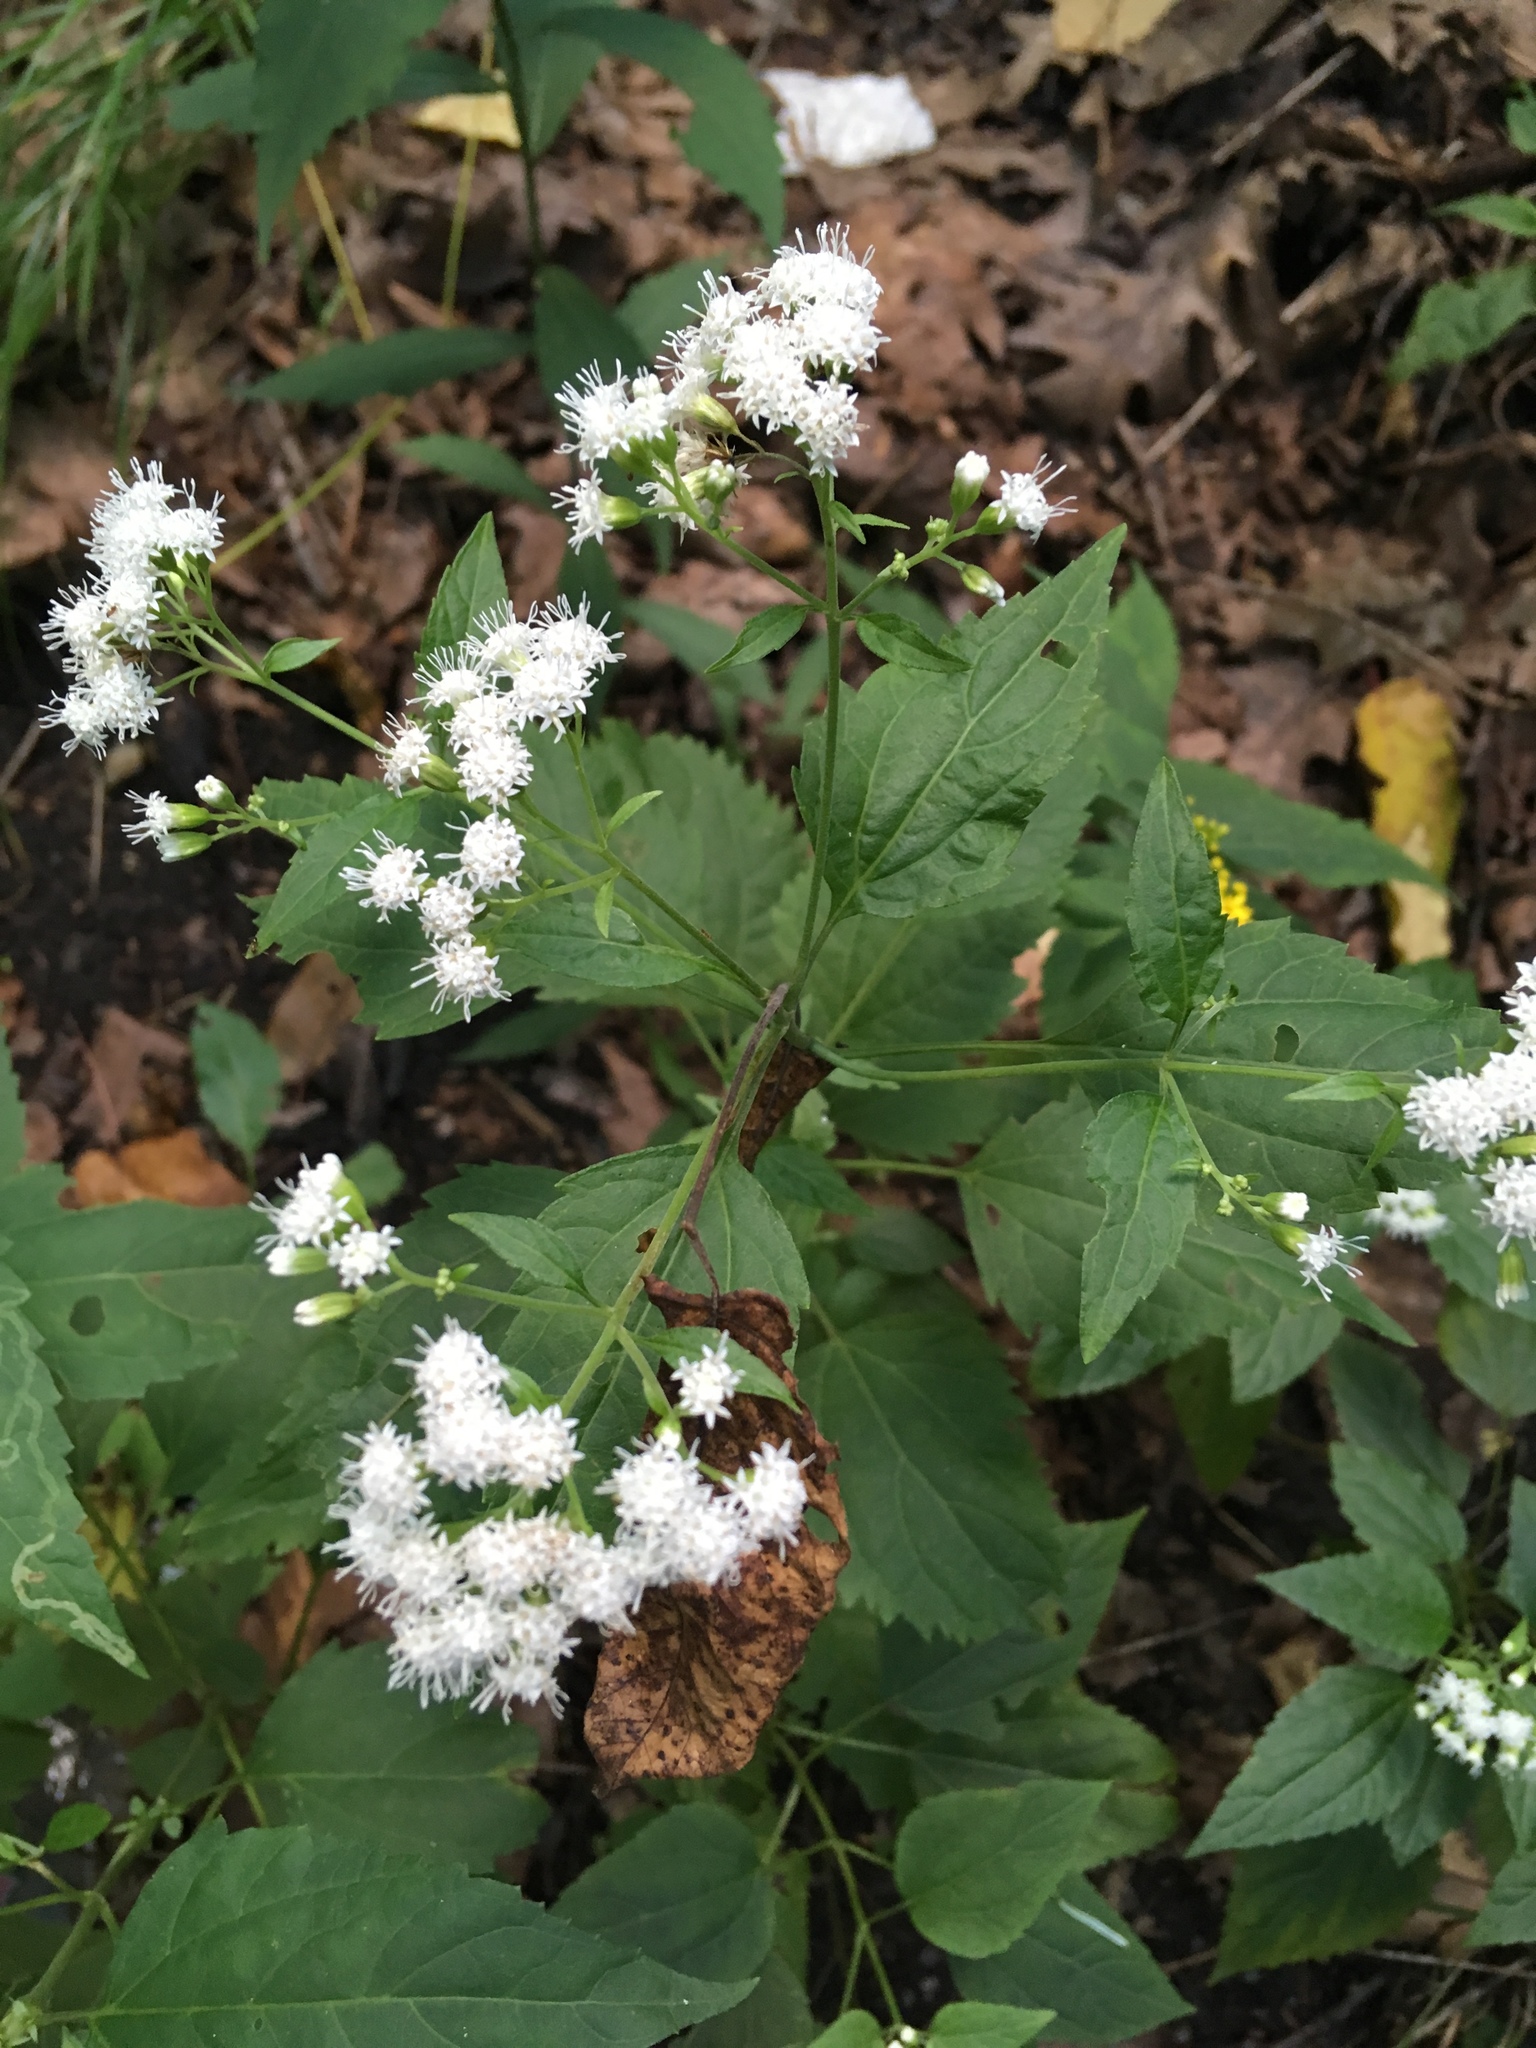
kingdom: Plantae
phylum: Tracheophyta
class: Magnoliopsida
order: Asterales
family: Asteraceae
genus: Ageratina
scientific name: Ageratina altissima
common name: White snakeroot
